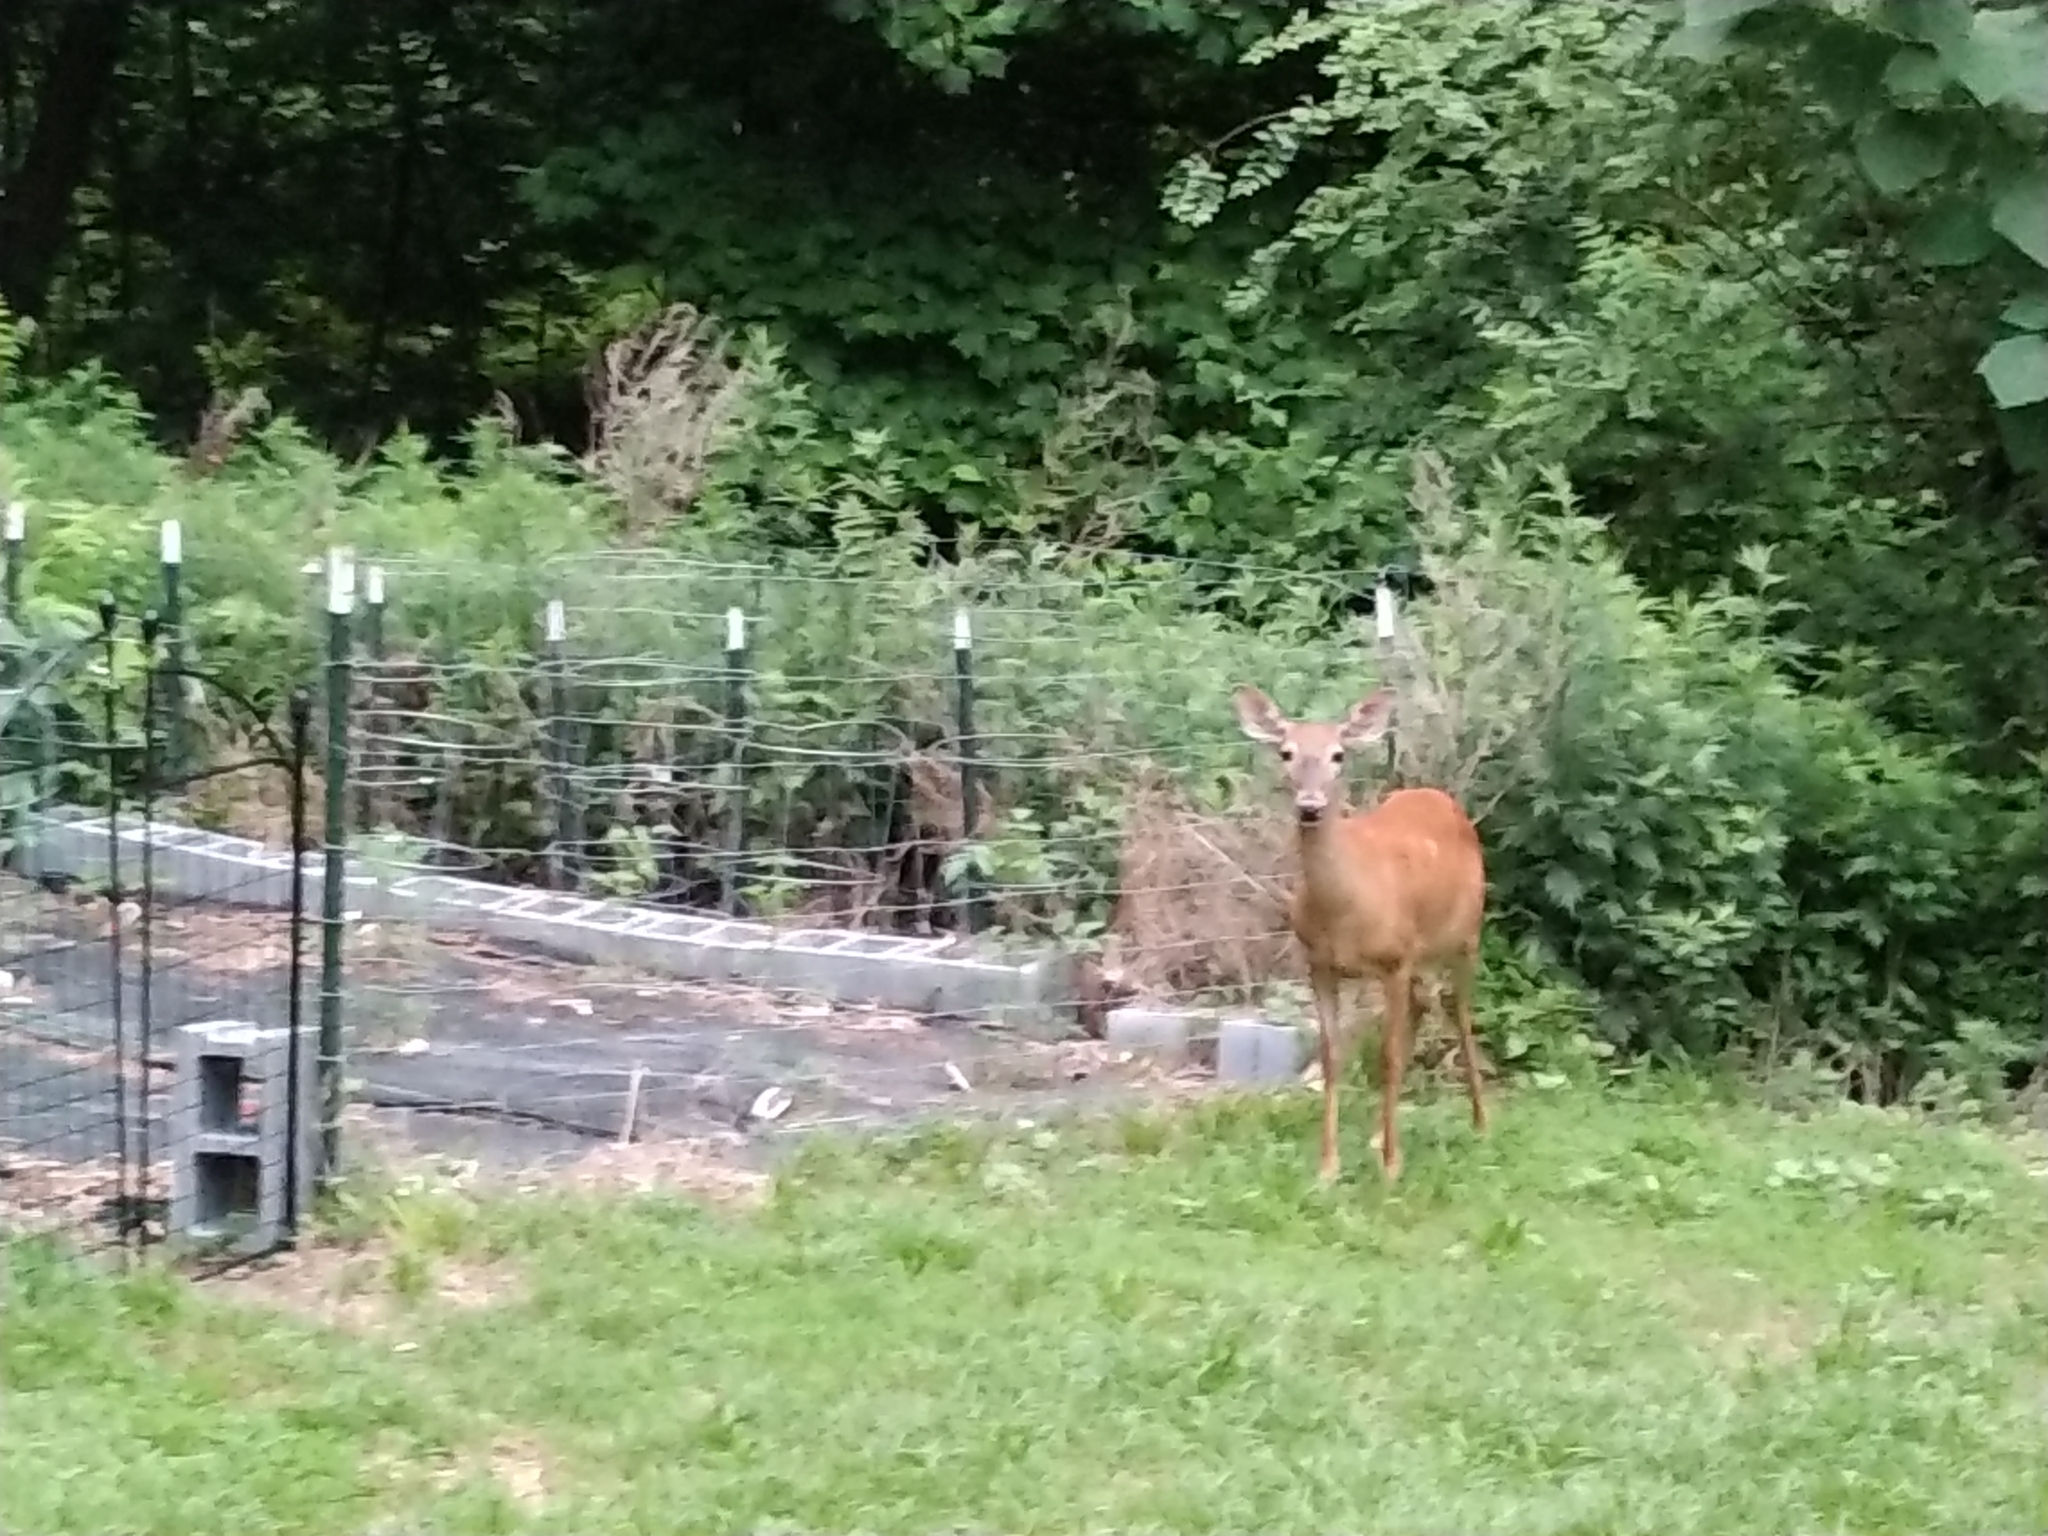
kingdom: Animalia
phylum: Chordata
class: Mammalia
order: Artiodactyla
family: Cervidae
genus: Odocoileus
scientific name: Odocoileus virginianus
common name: White-tailed deer
